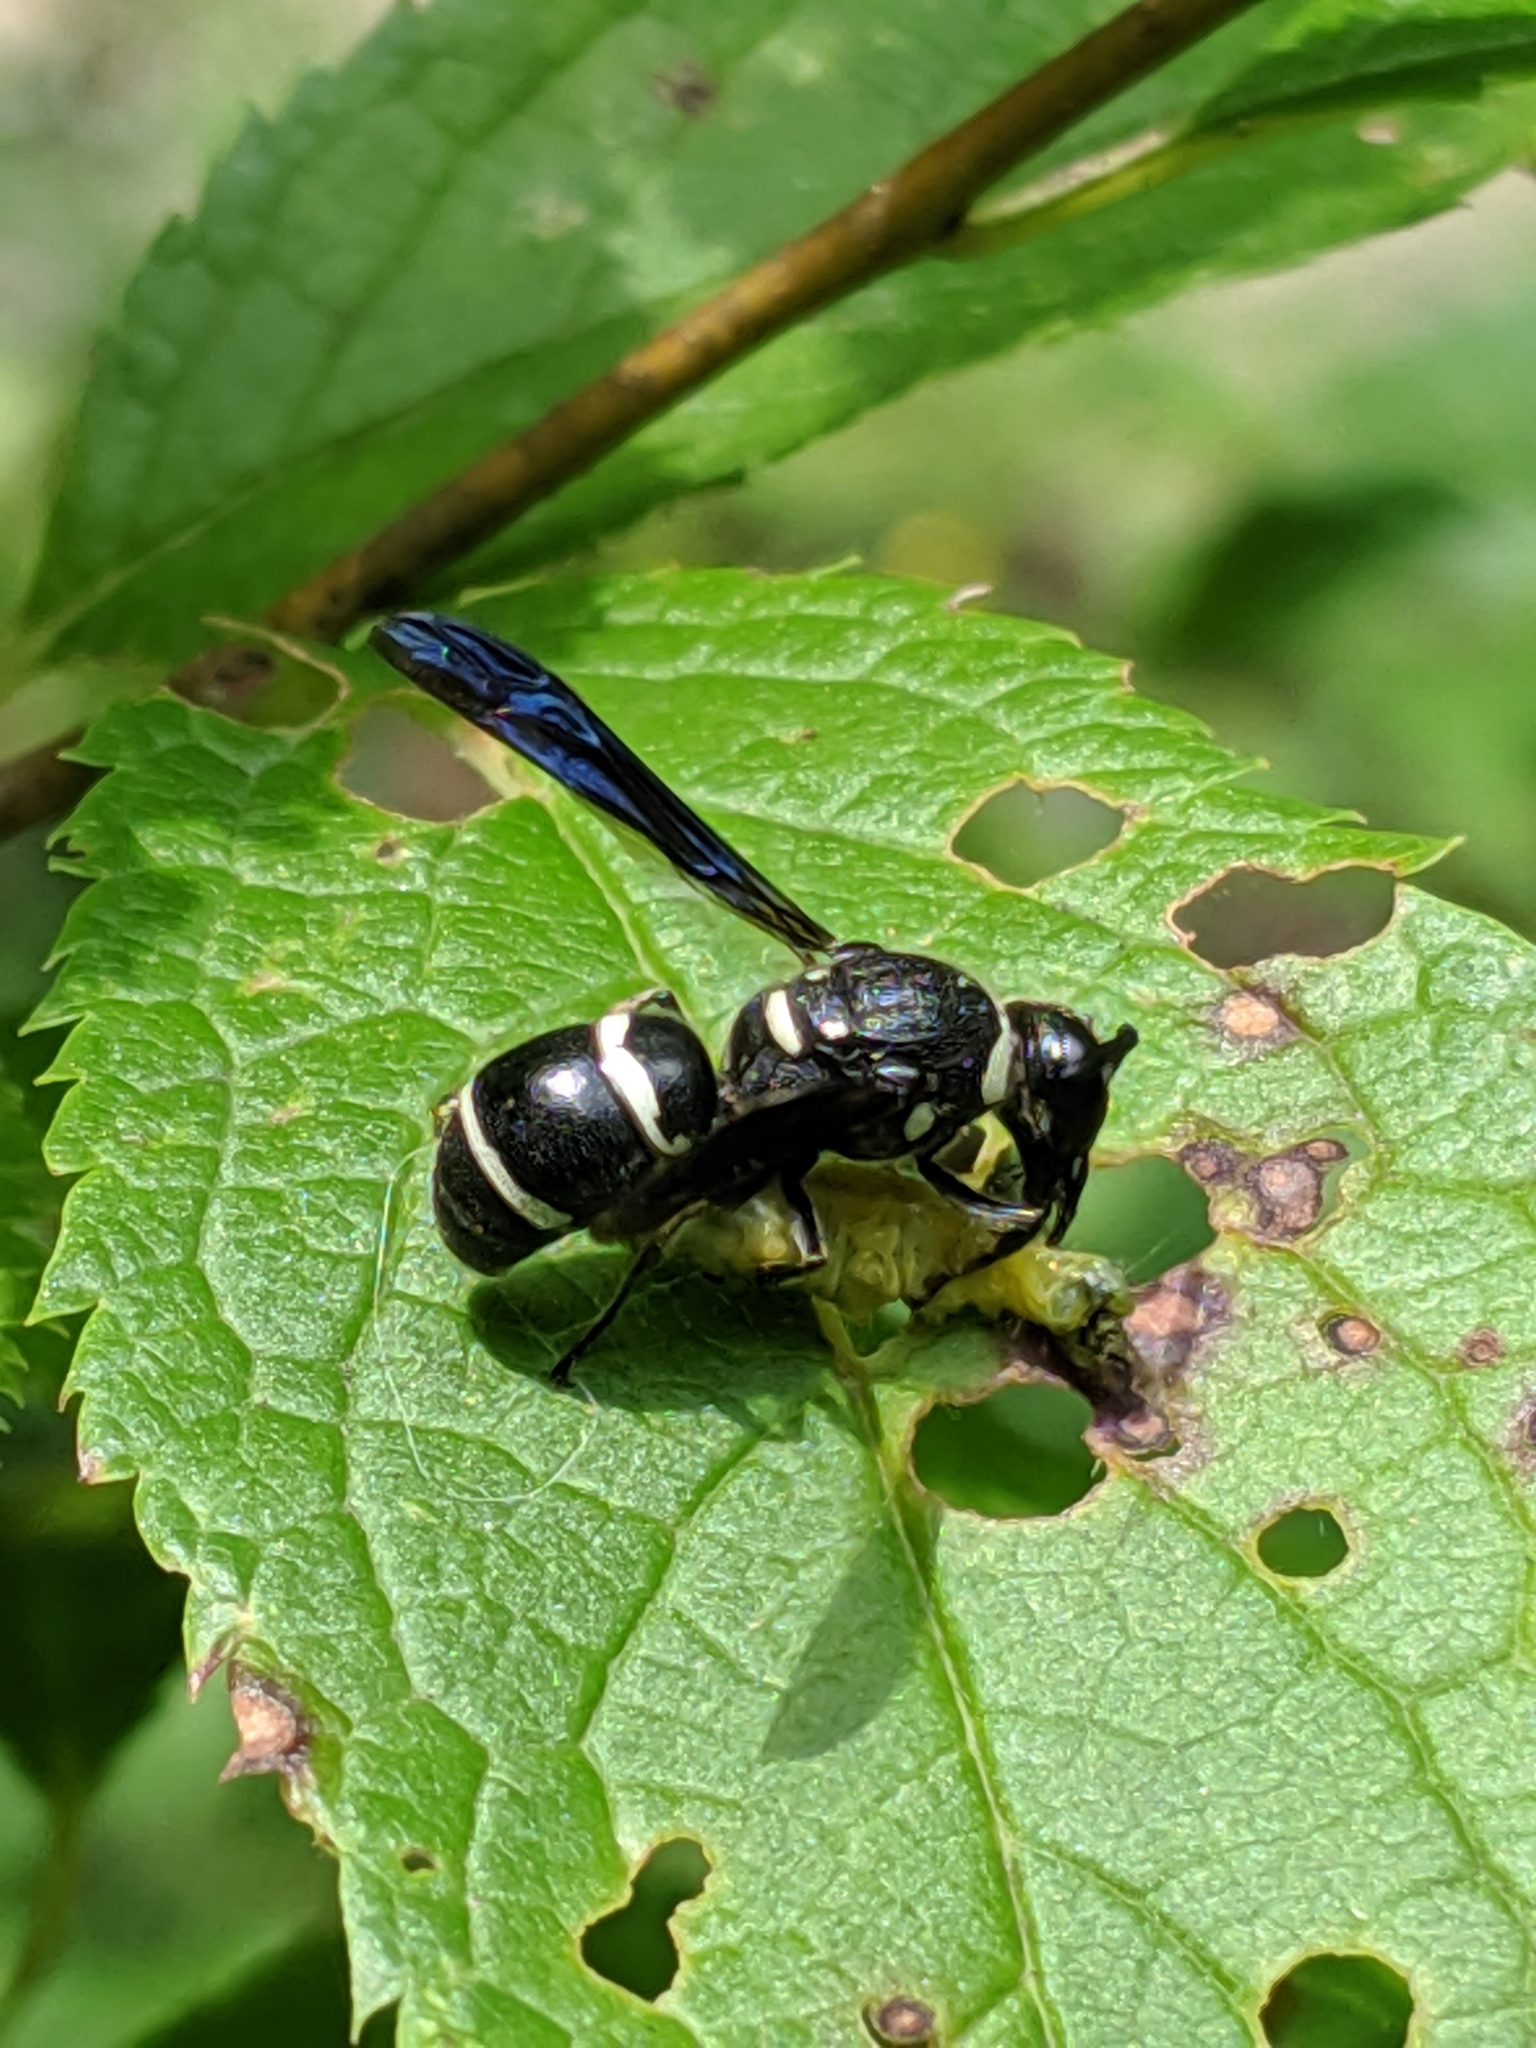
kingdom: Animalia
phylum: Arthropoda
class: Insecta
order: Hymenoptera
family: Eumenidae
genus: Euodynerus
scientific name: Euodynerus megaera
